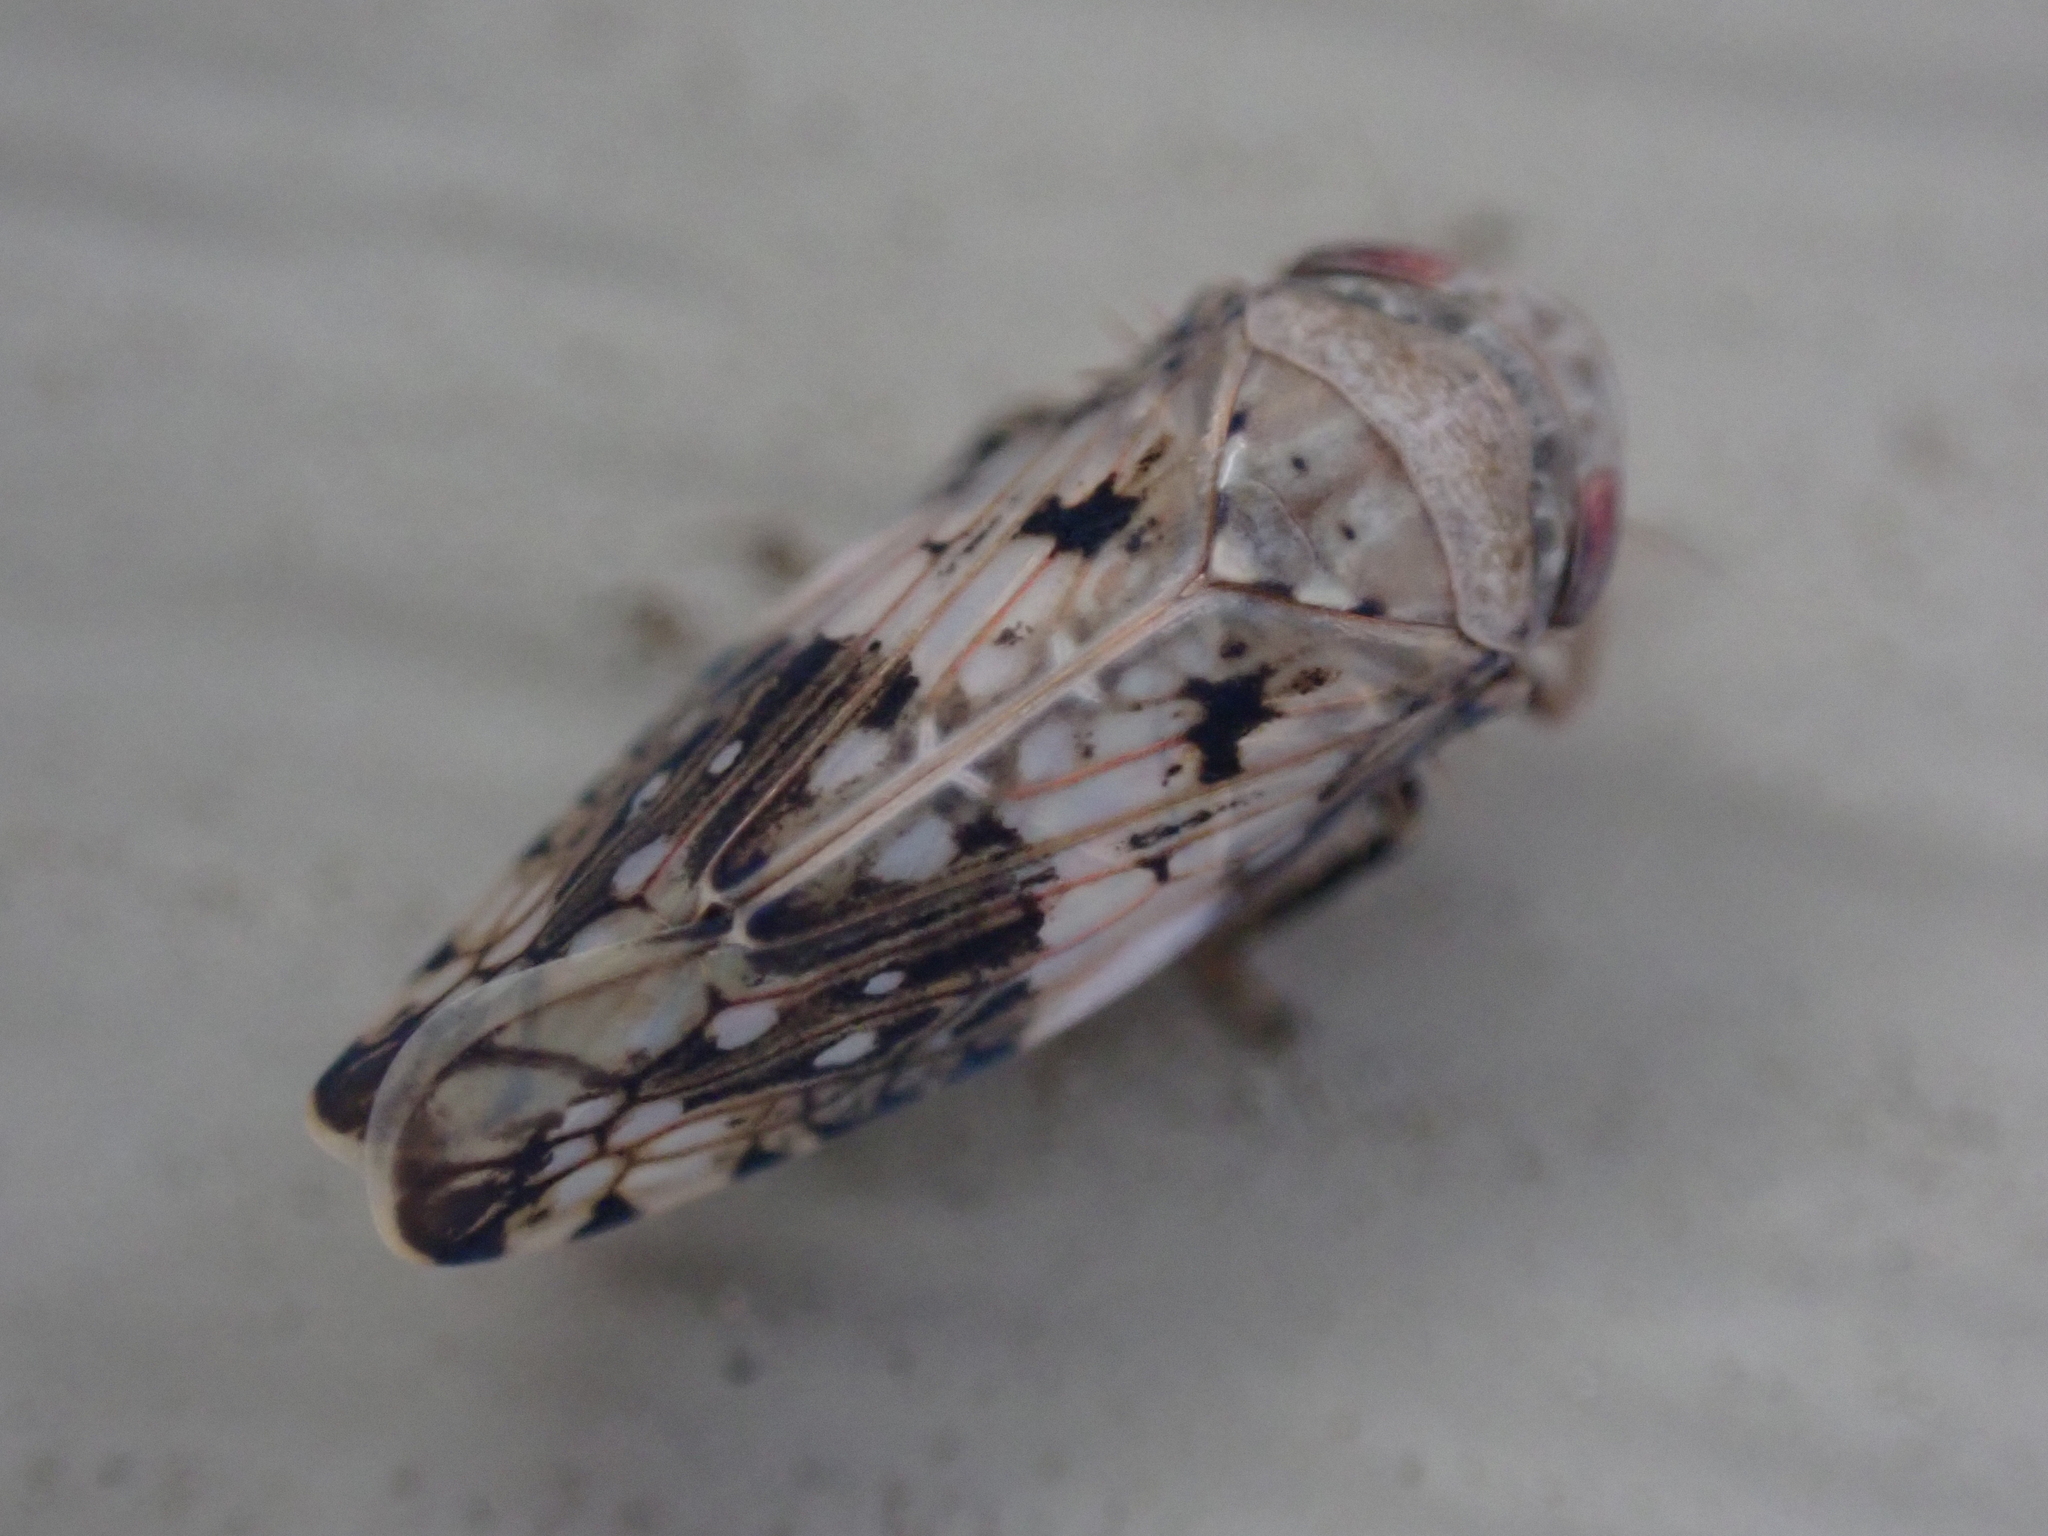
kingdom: Animalia
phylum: Arthropoda
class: Insecta
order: Hemiptera
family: Cicadellidae
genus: Menosoma
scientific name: Menosoma cinctum
